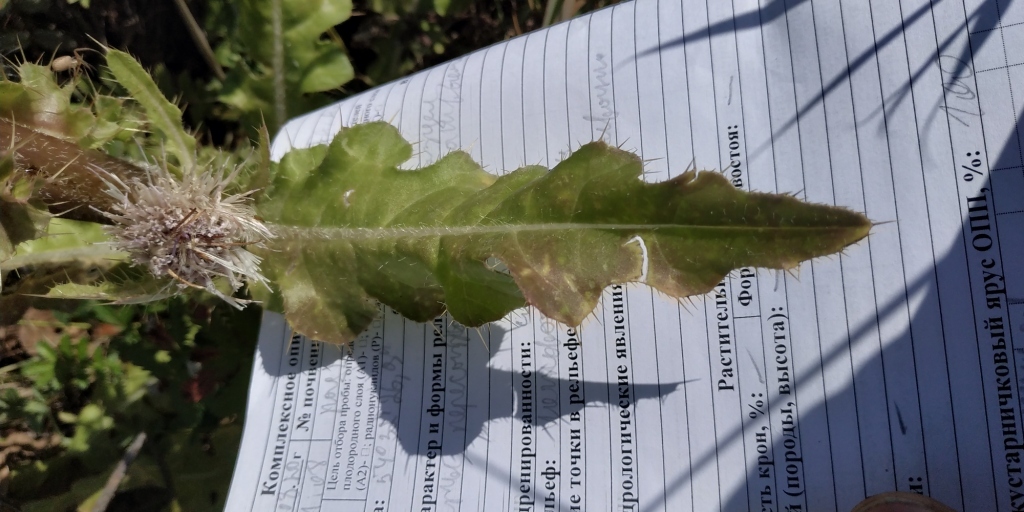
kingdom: Plantae
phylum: Tracheophyta
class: Magnoliopsida
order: Asterales
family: Asteraceae
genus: Cirsium
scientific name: Cirsium esculentum
